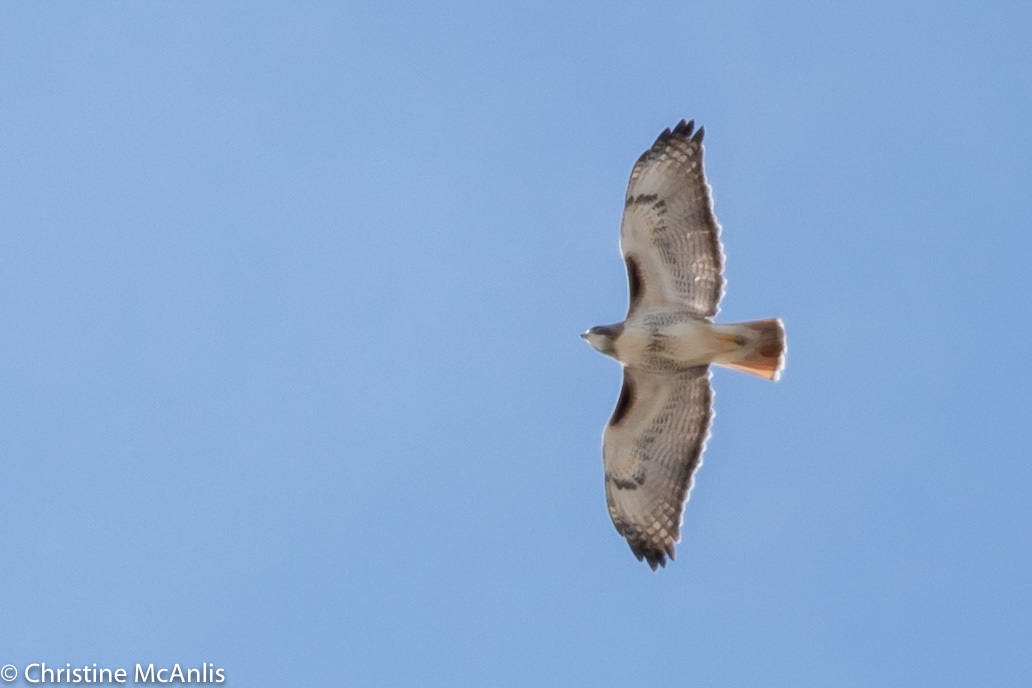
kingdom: Animalia
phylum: Chordata
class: Aves
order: Accipitriformes
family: Accipitridae
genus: Buteo
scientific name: Buteo jamaicensis
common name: Red-tailed hawk
